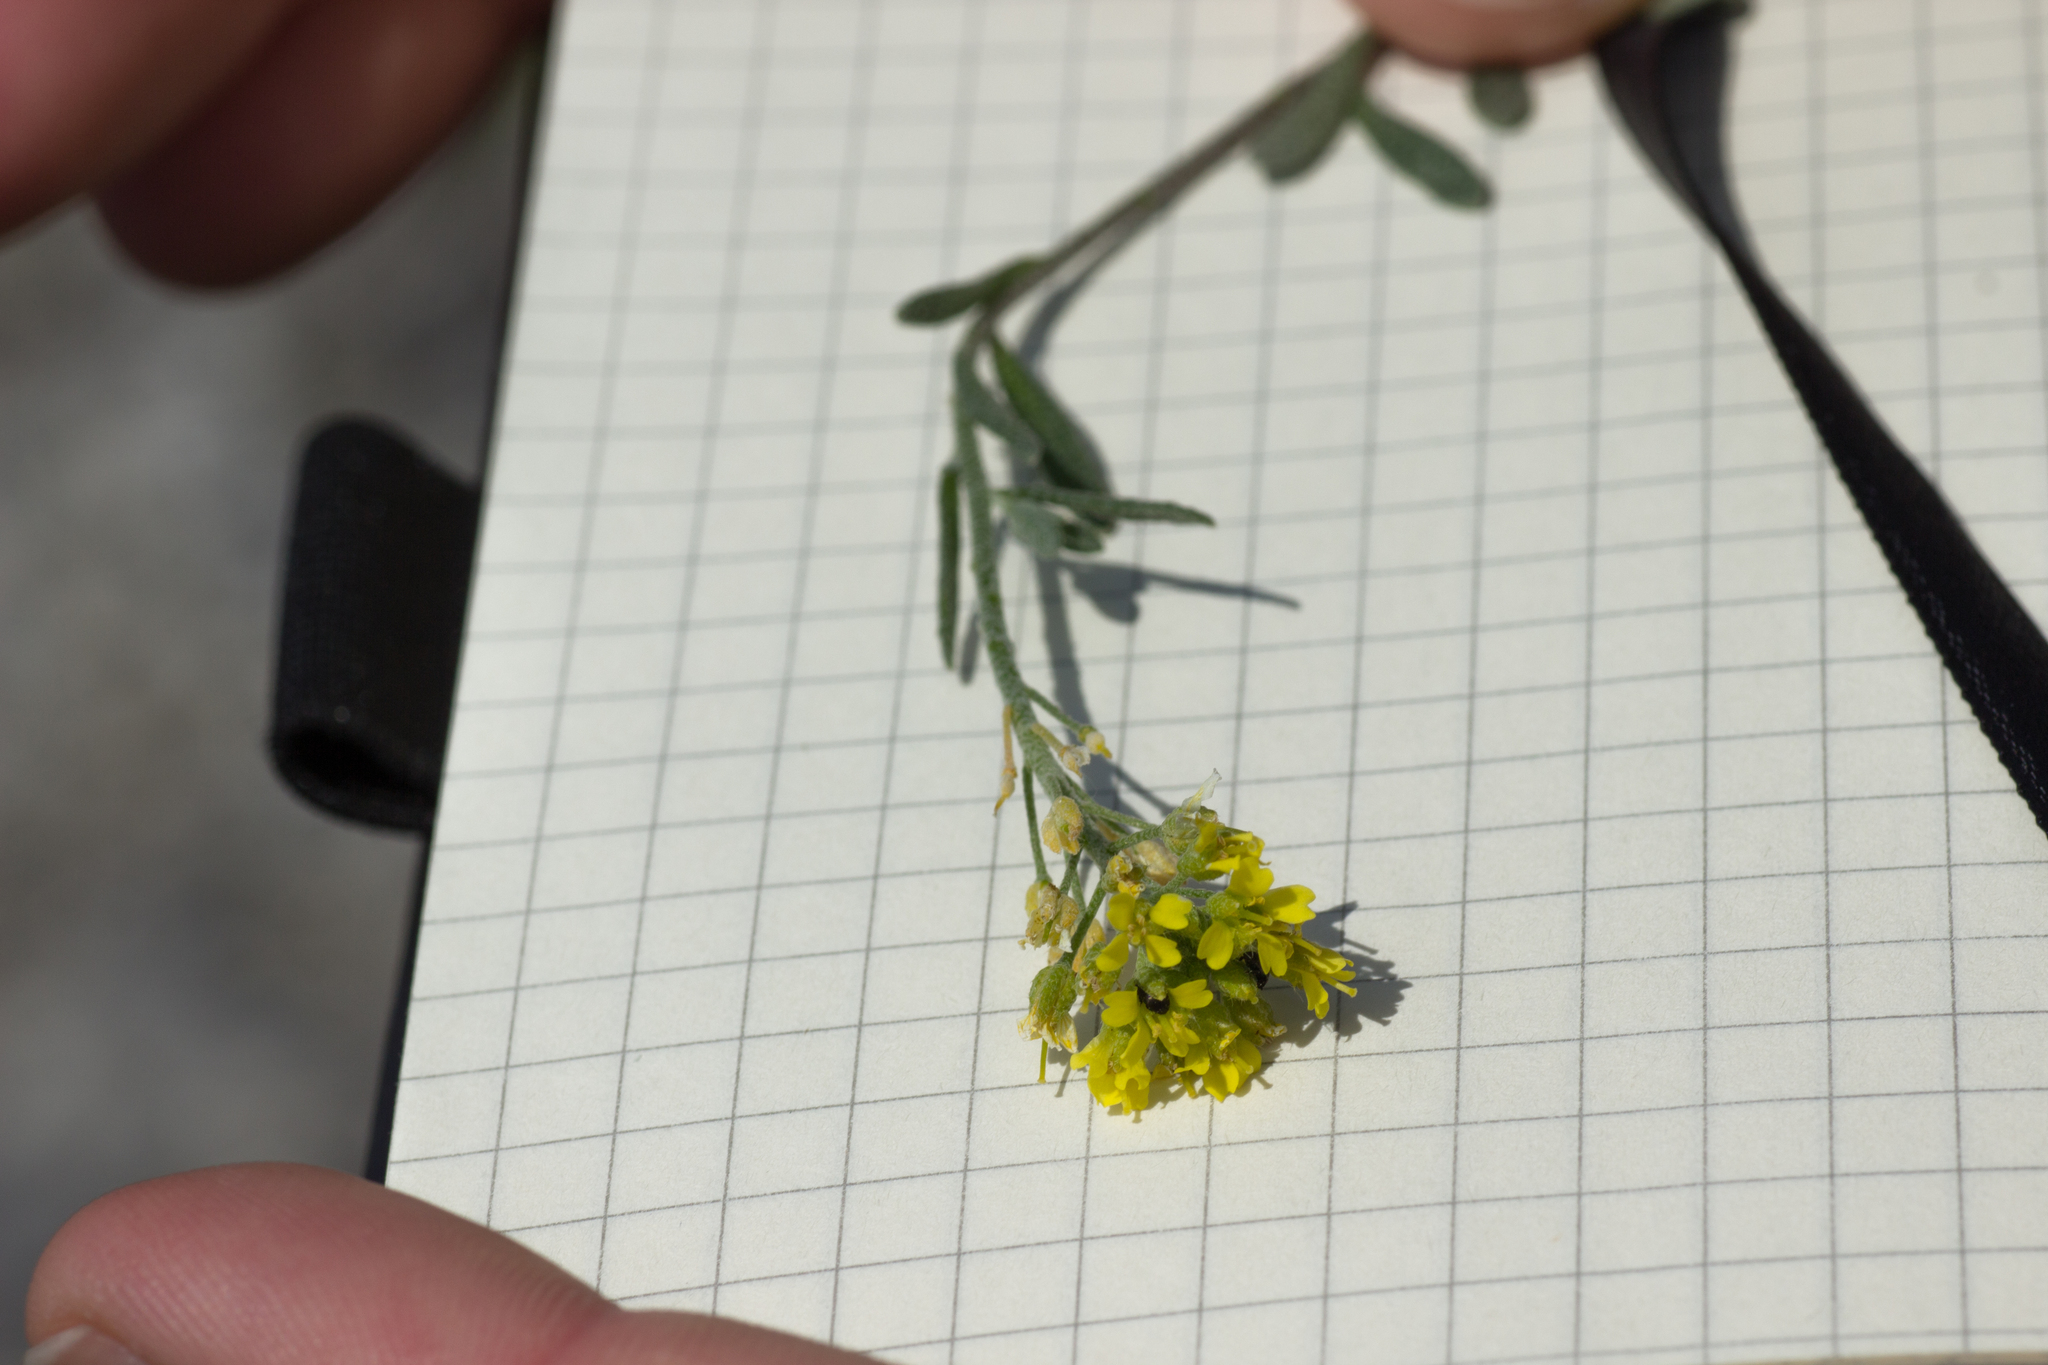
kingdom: Plantae
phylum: Tracheophyta
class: Magnoliopsida
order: Brassicales
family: Brassicaceae
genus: Alyssum
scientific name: Alyssum gmelinii
